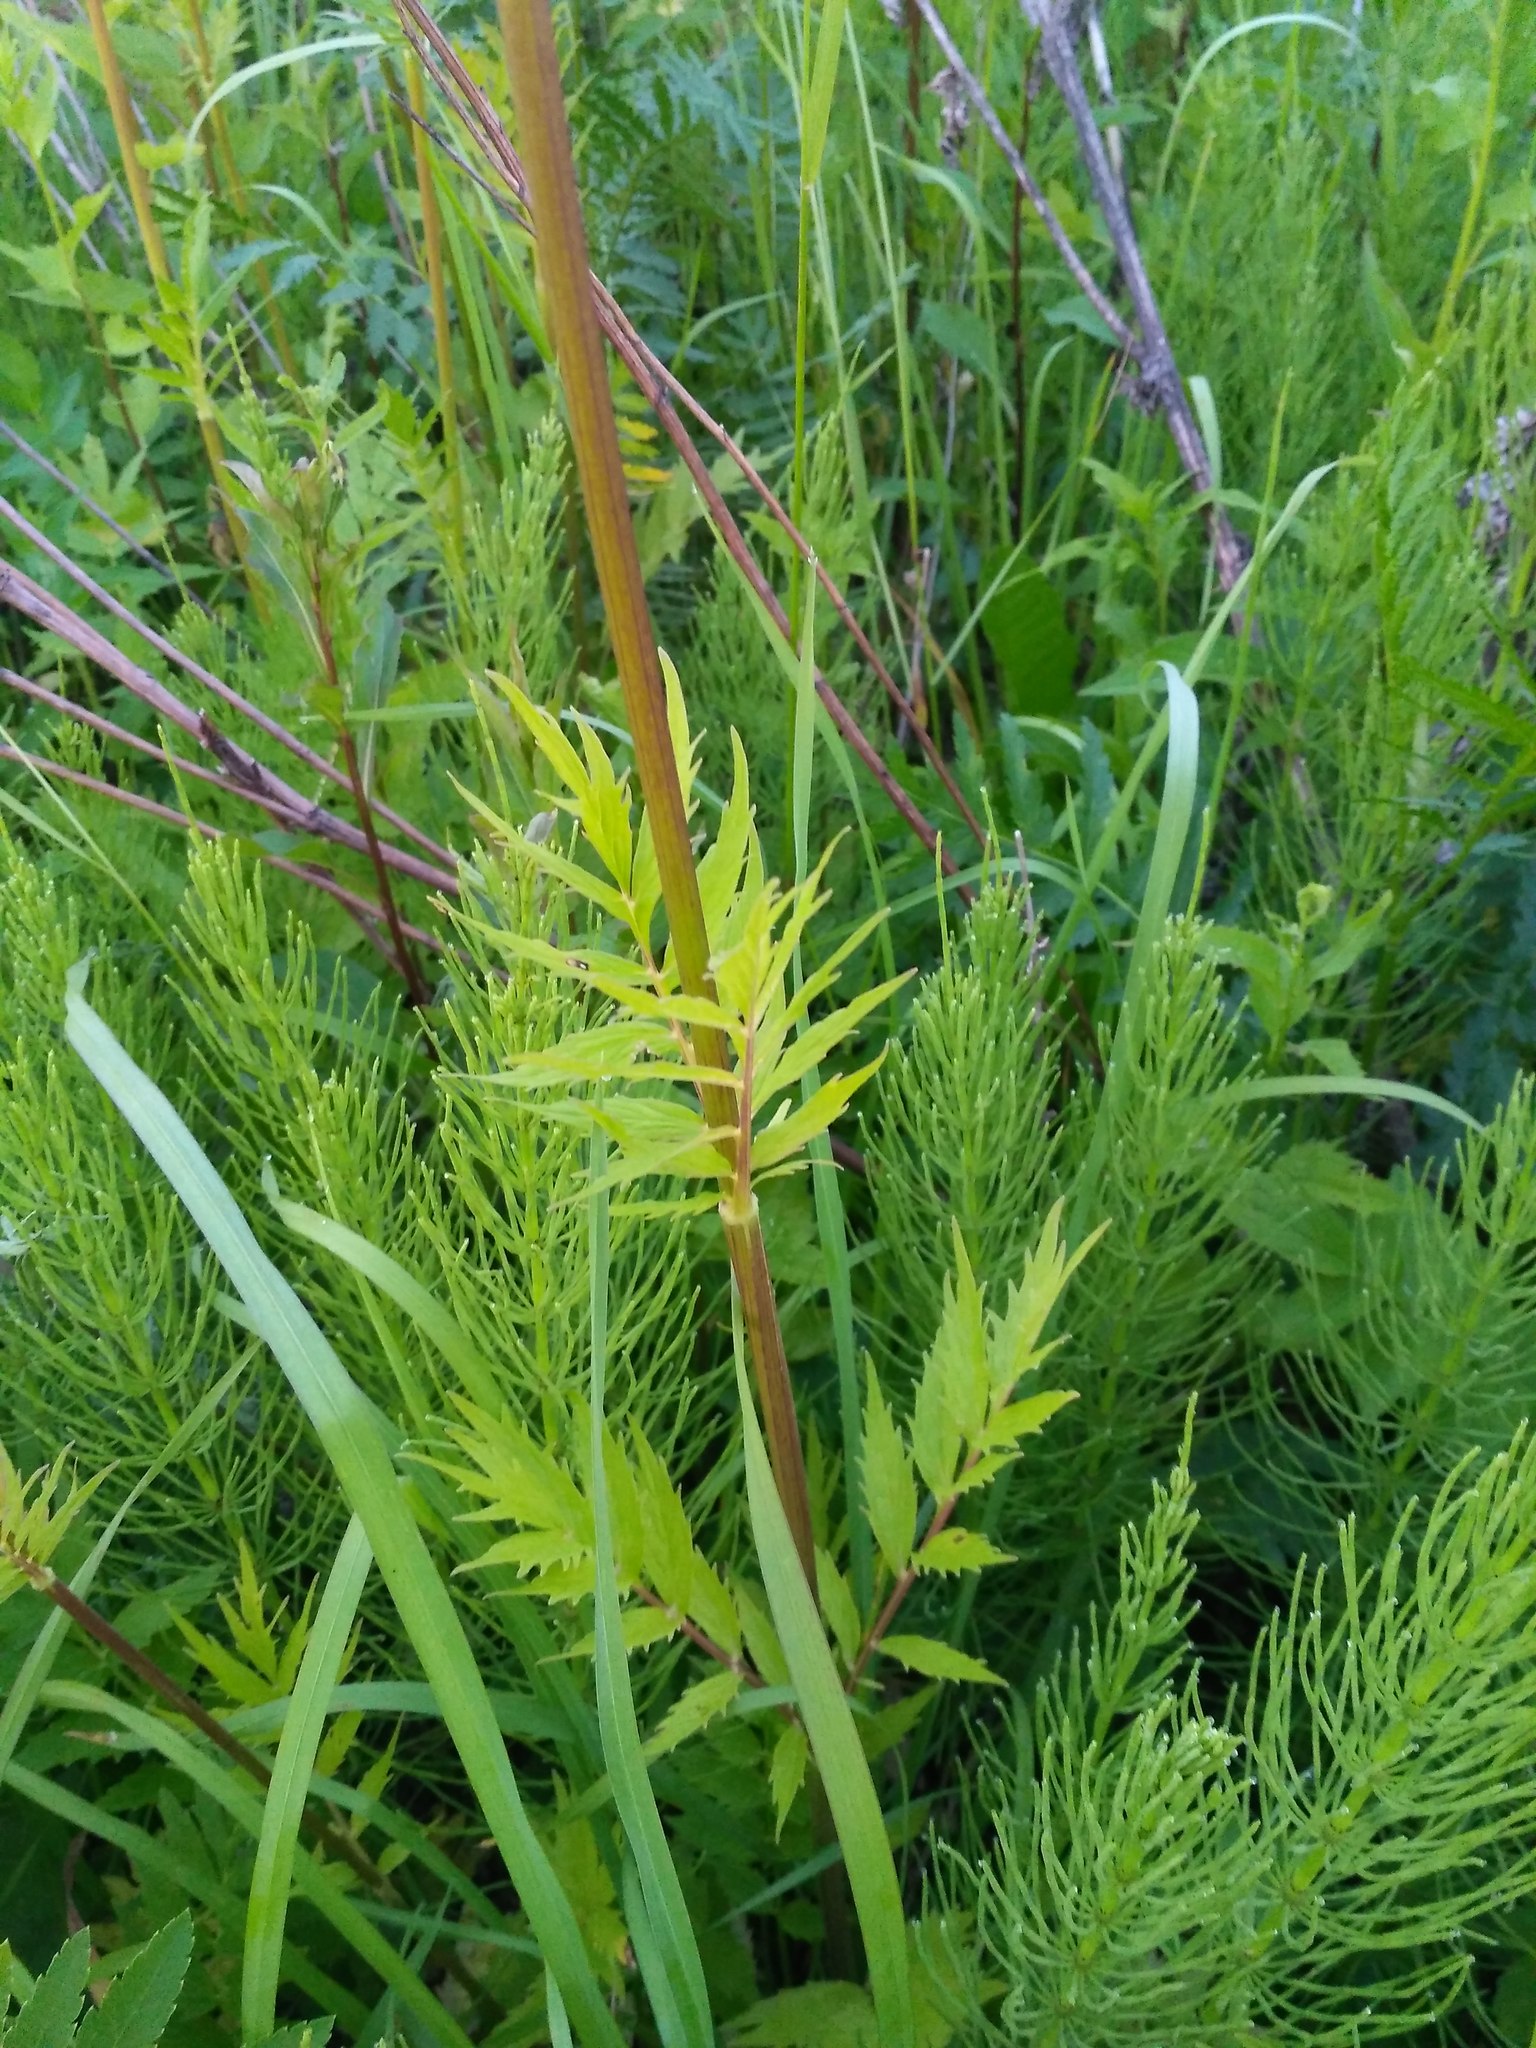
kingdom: Plantae
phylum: Tracheophyta
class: Magnoliopsida
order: Dipsacales
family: Caprifoliaceae
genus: Valeriana
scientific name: Valeriana officinalis
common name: Common valerian
